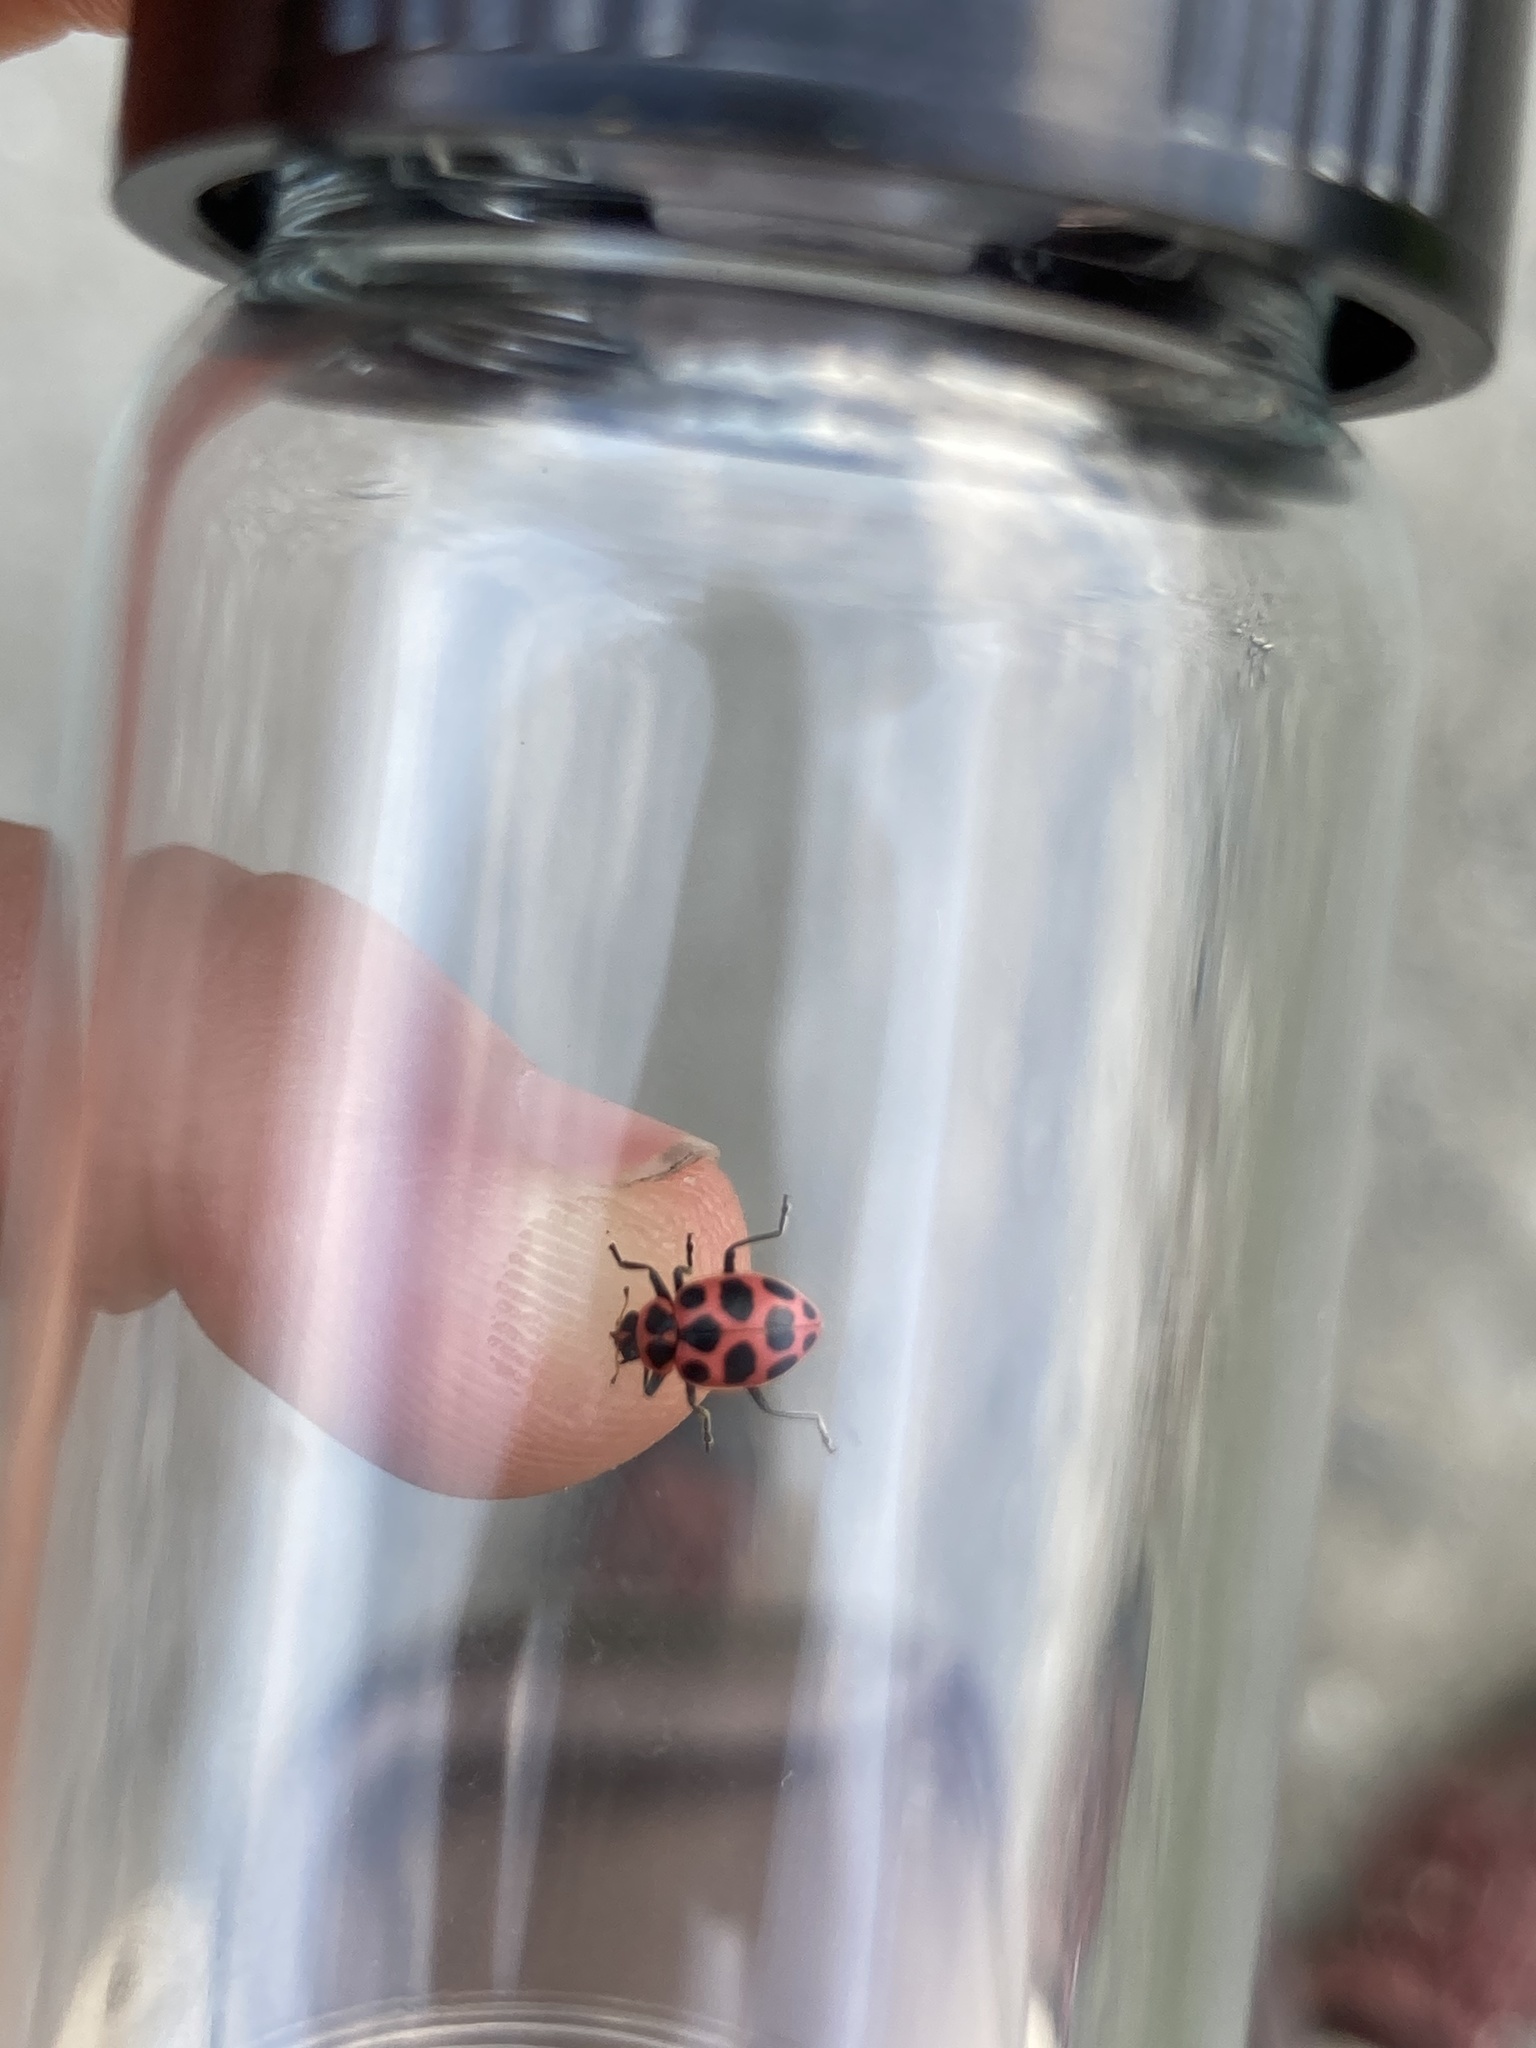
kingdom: Animalia
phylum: Arthropoda
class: Insecta
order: Coleoptera
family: Coccinellidae
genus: Coleomegilla
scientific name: Coleomegilla maculata
